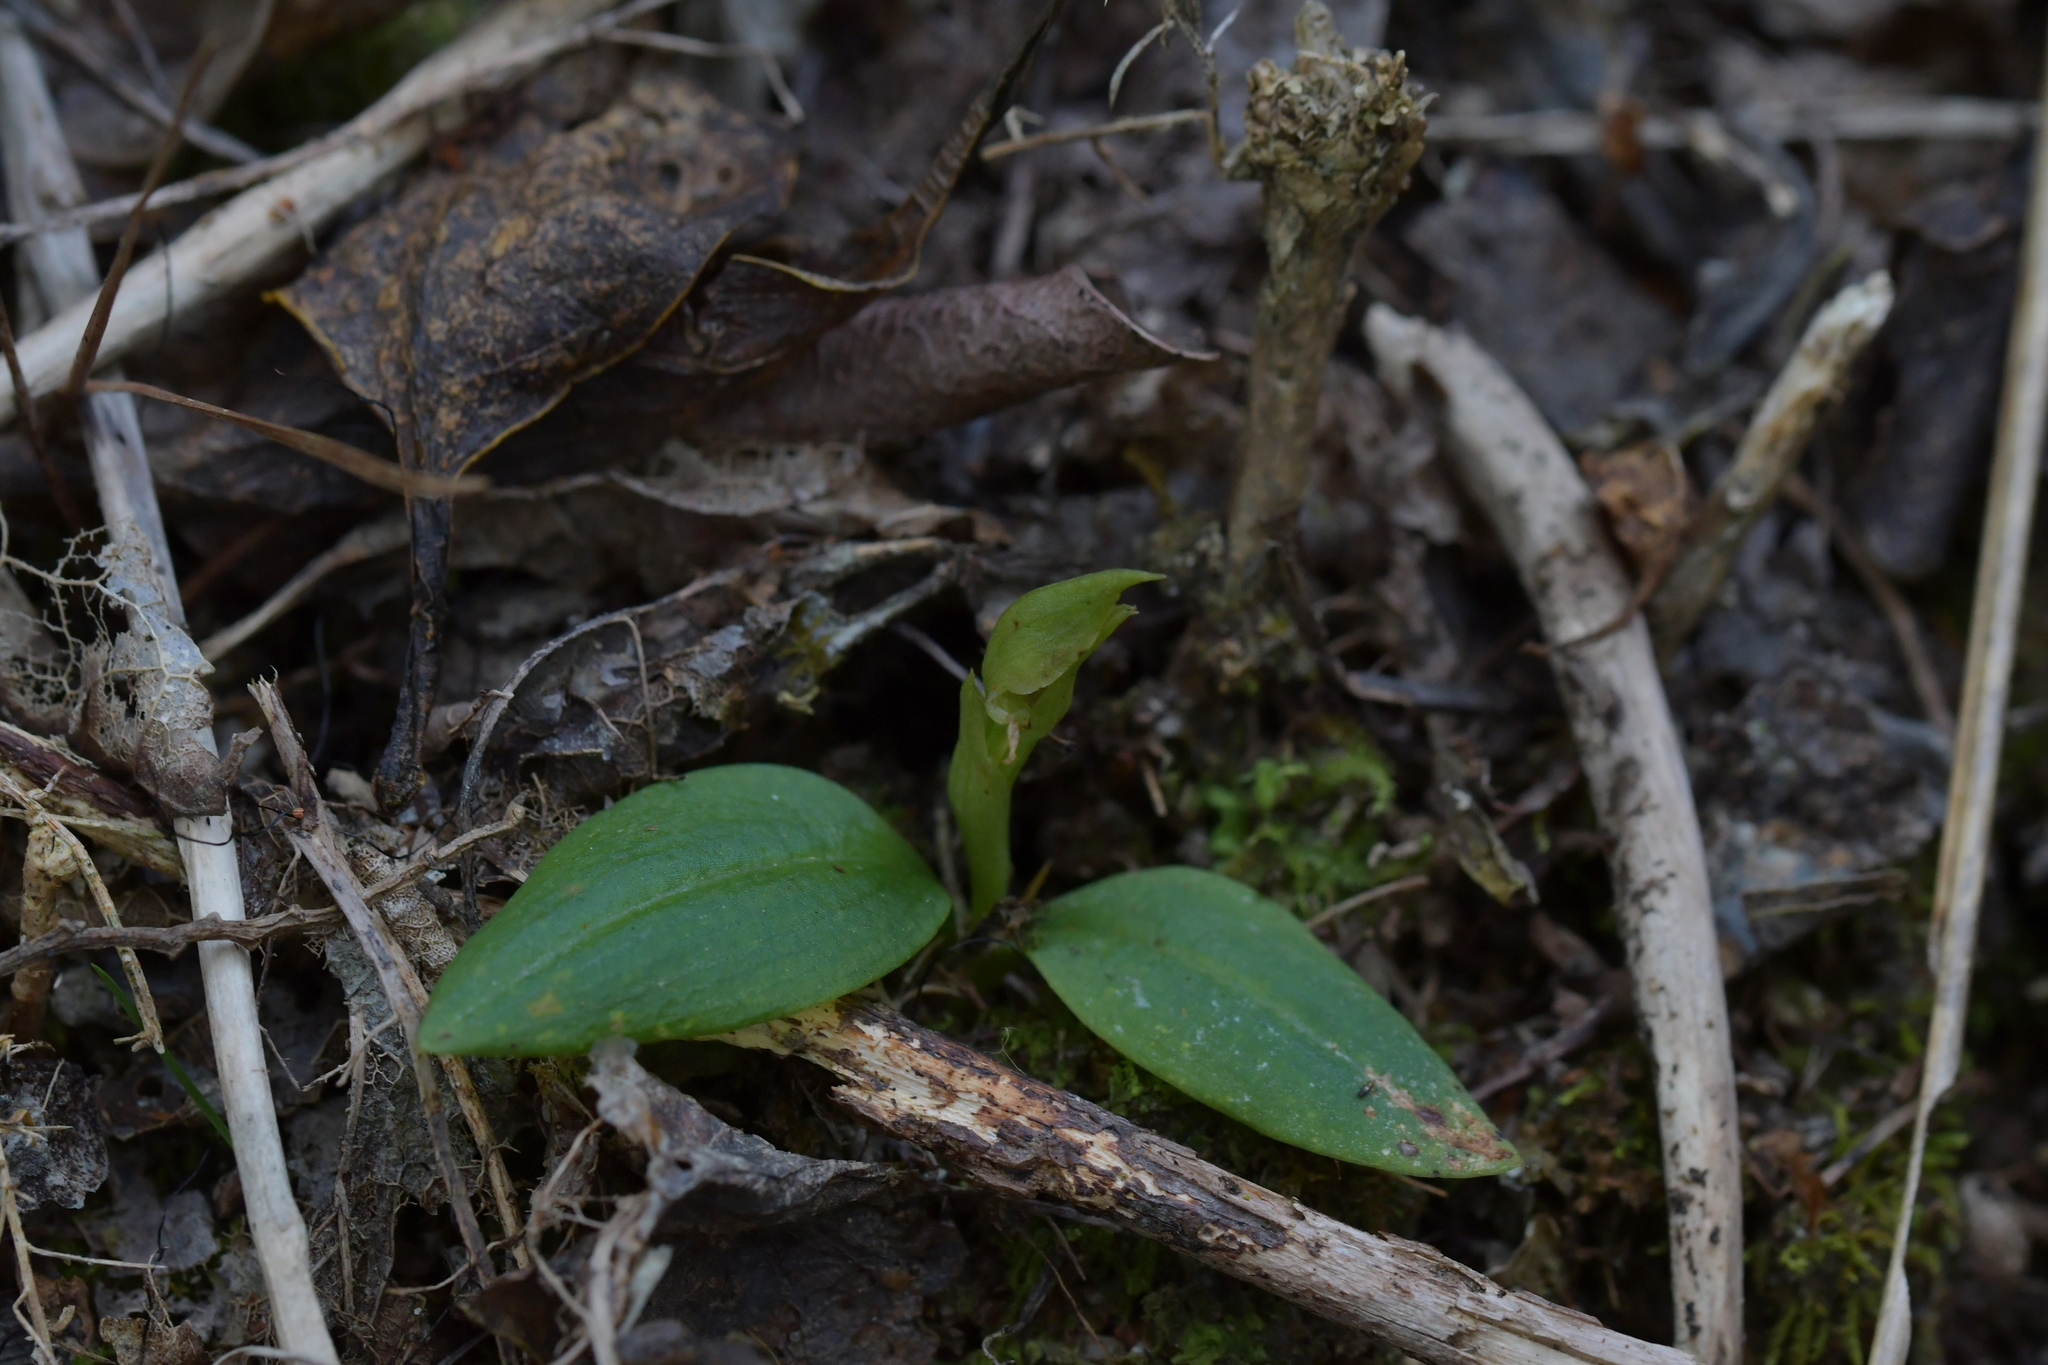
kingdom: Plantae
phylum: Tracheophyta
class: Liliopsida
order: Asparagales
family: Orchidaceae
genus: Chiloglottis
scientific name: Chiloglottis cornuta
